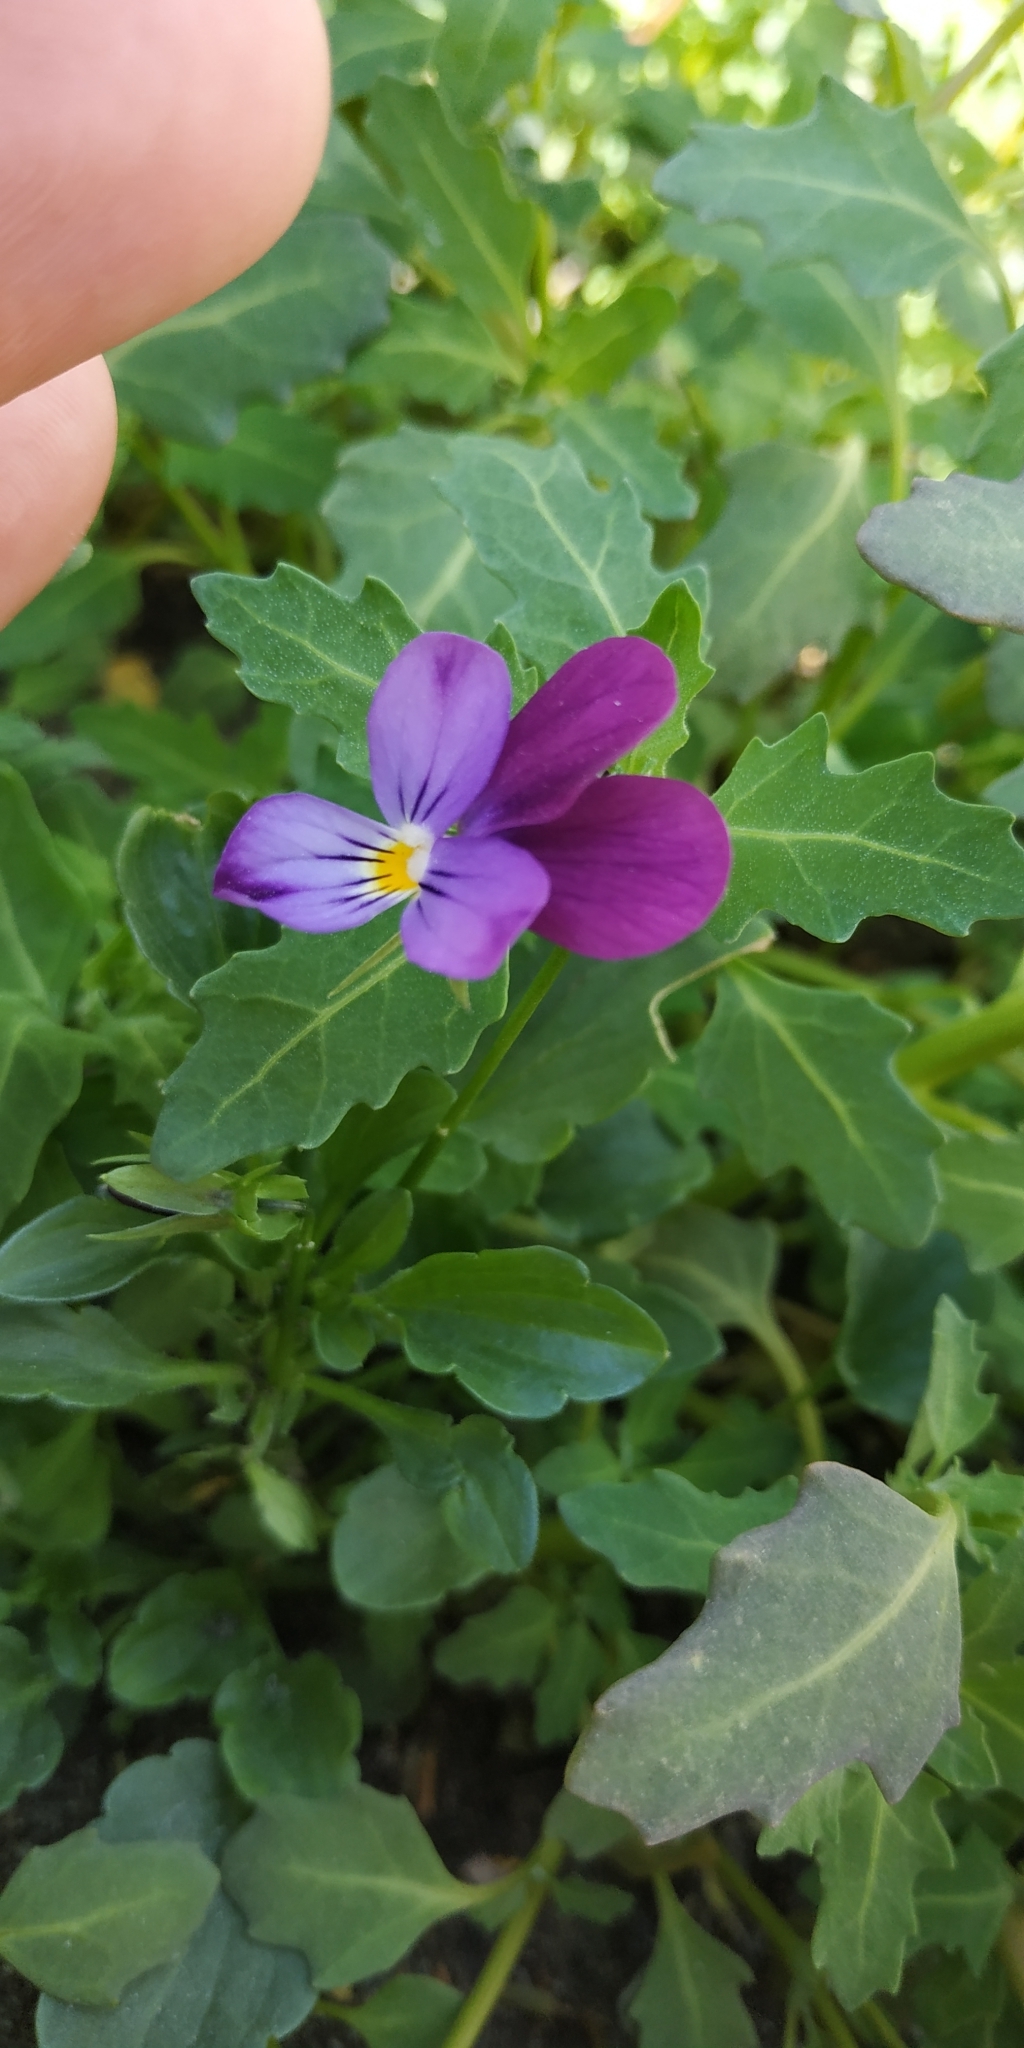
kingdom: Plantae
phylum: Tracheophyta
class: Magnoliopsida
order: Malpighiales
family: Violaceae
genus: Viola
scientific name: Viola tricolor
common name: Pansy
